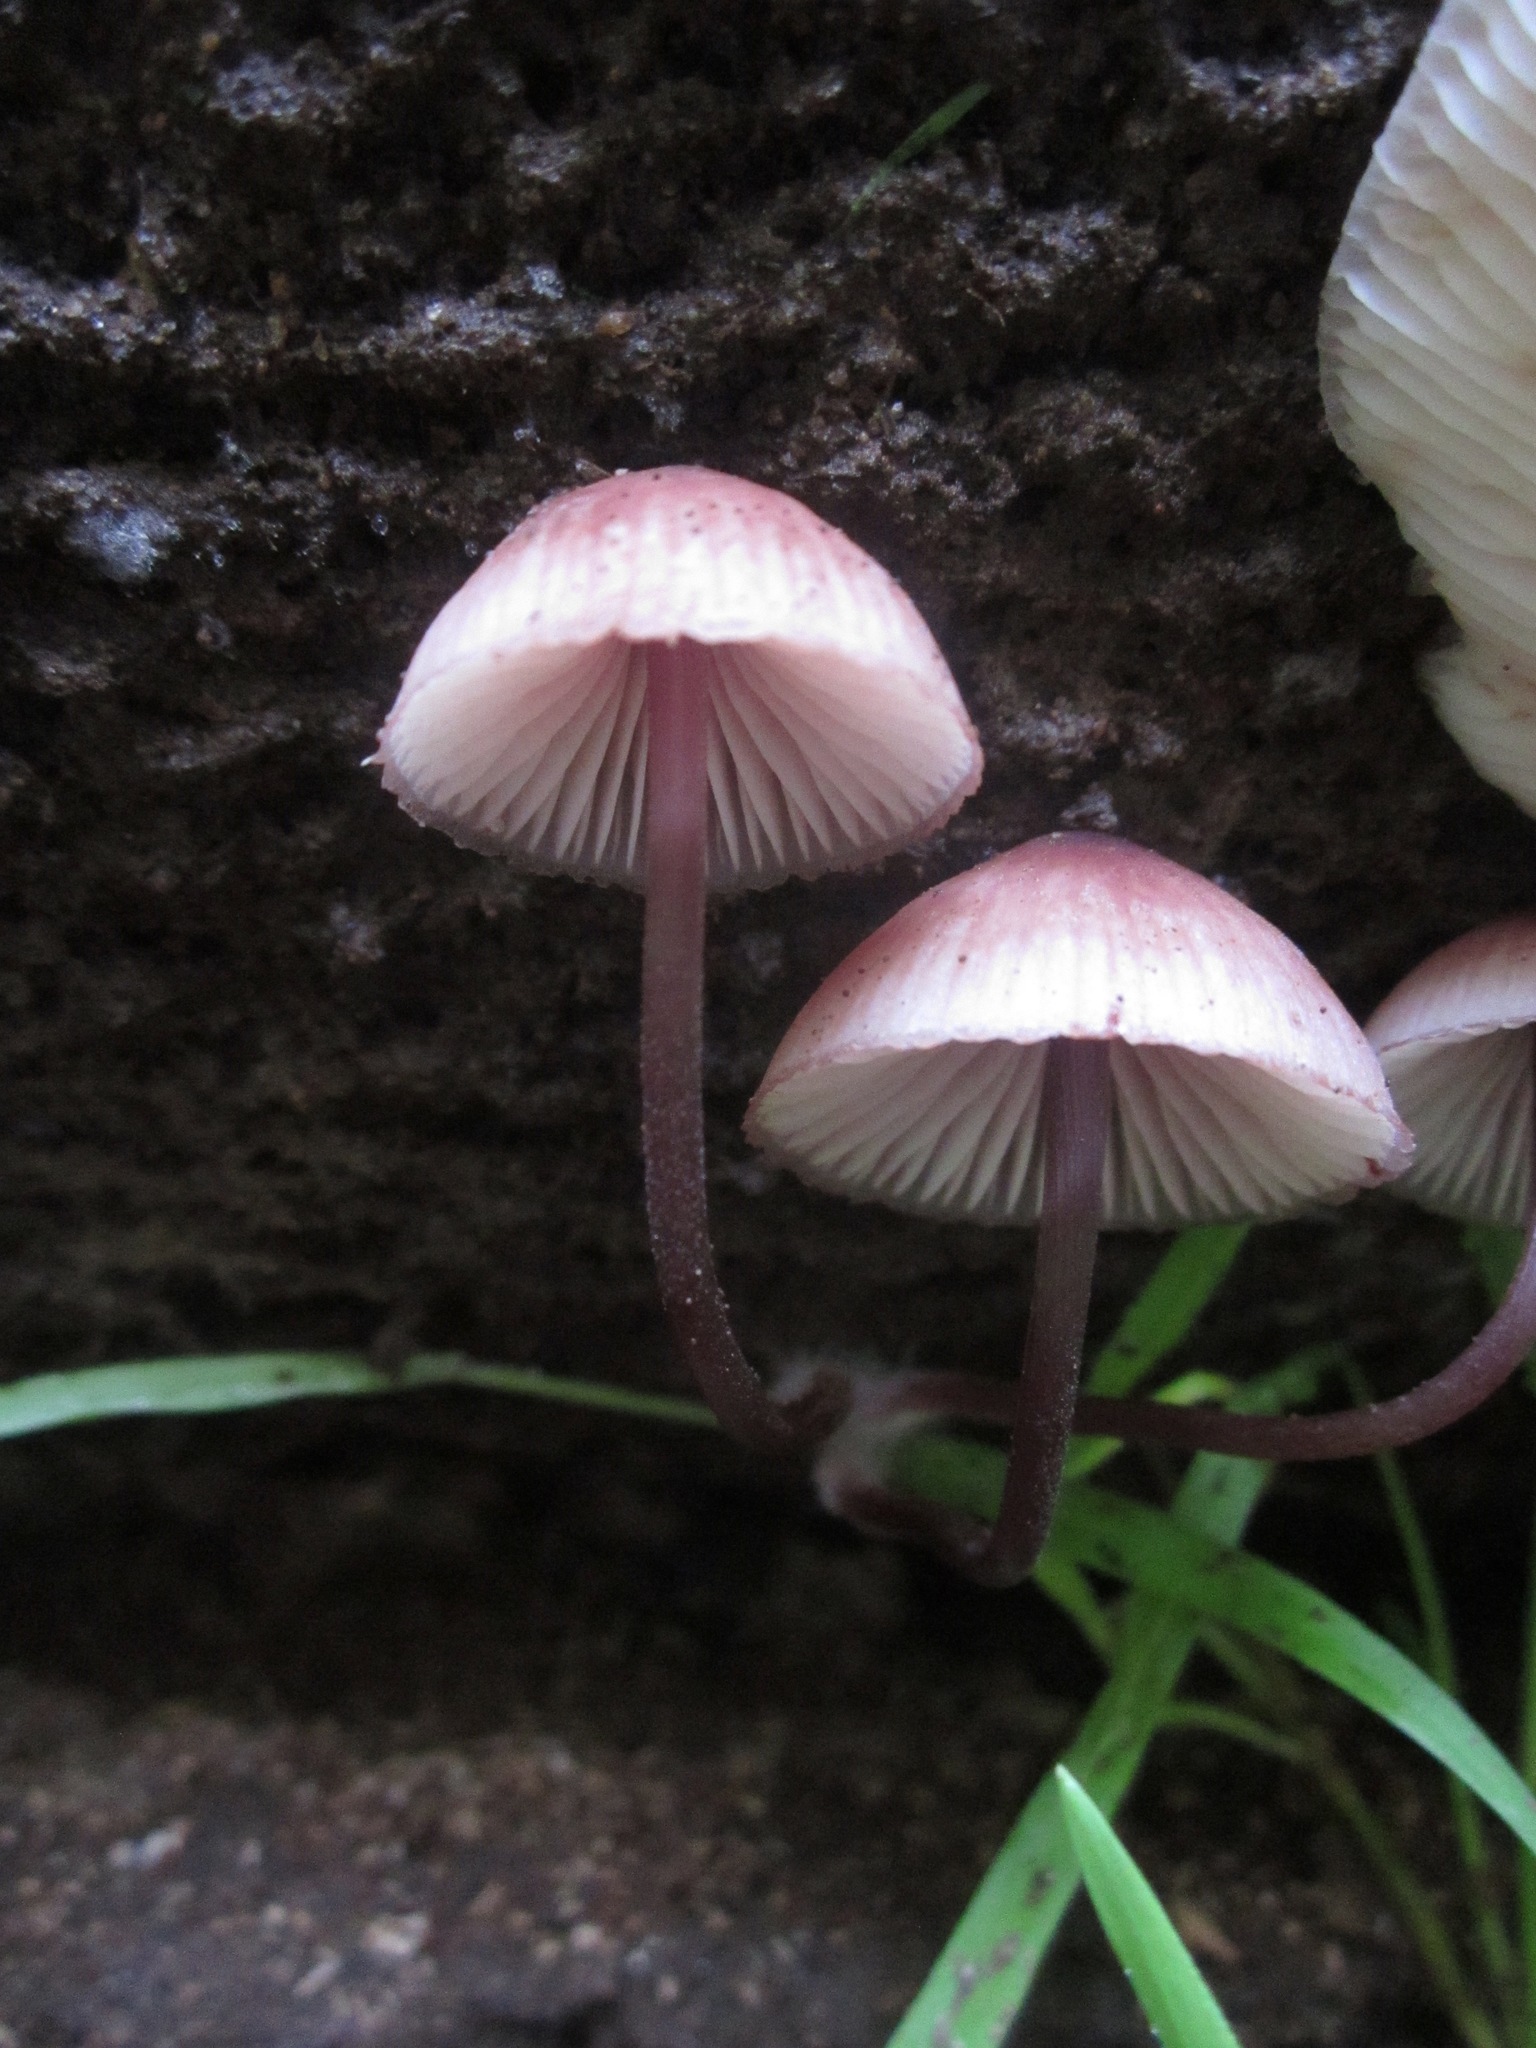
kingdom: Fungi
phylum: Basidiomycota
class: Agaricomycetes
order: Agaricales
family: Mycenaceae
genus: Mycena
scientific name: Mycena haematopus
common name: Burgundydrop bonnet
